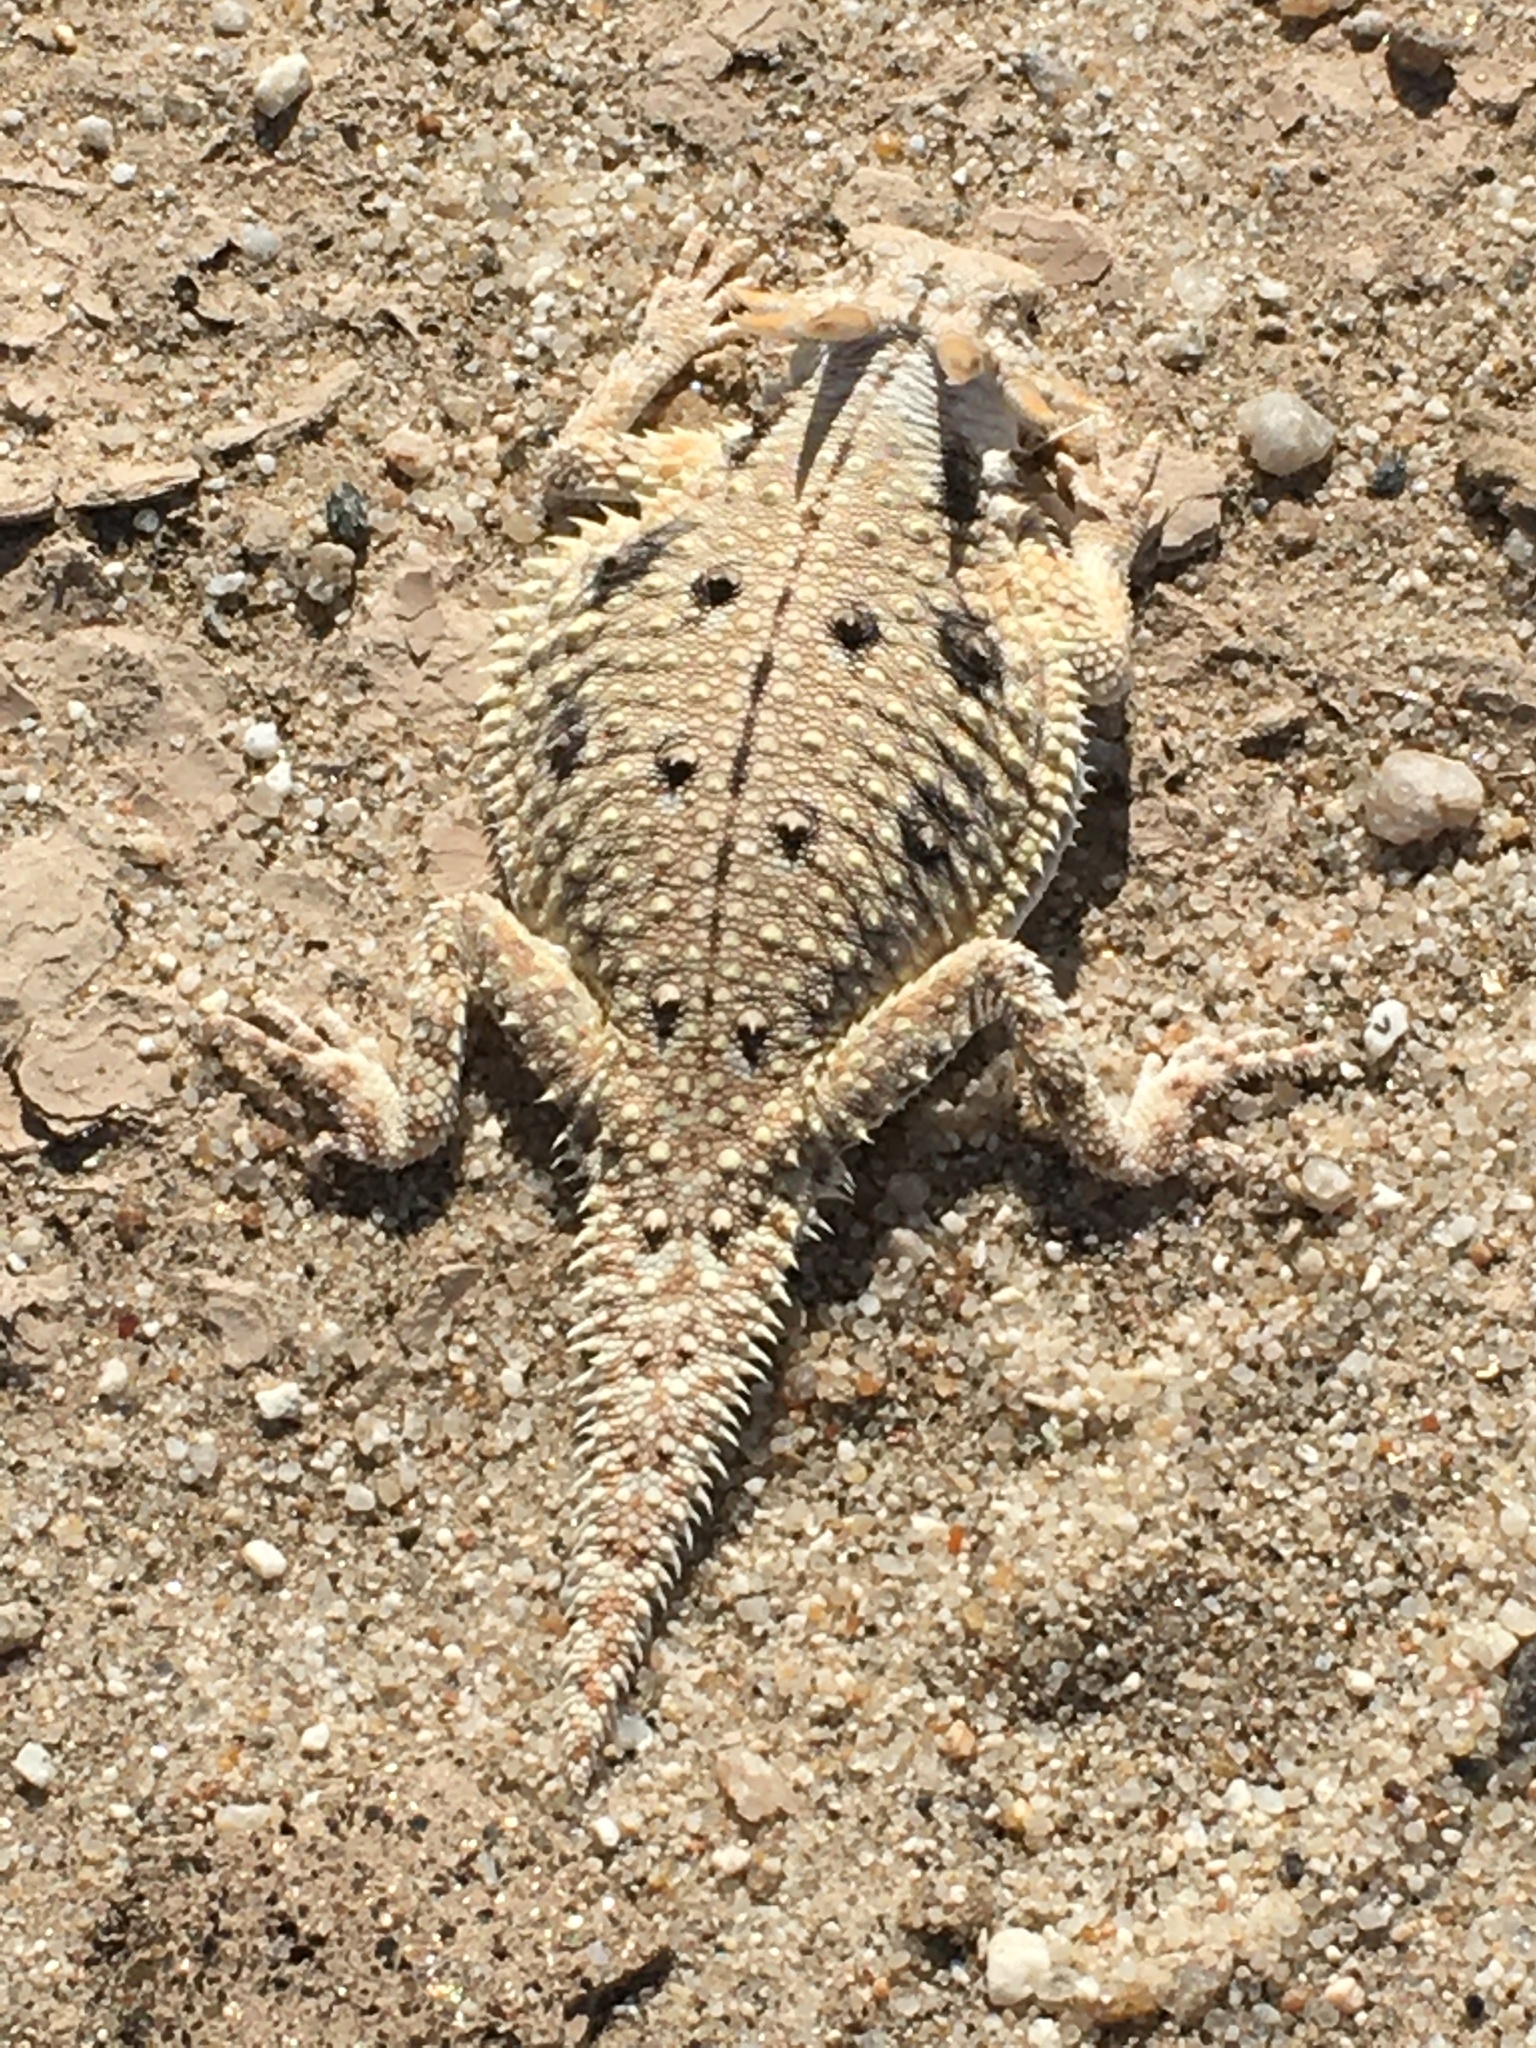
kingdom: Animalia
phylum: Chordata
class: Squamata
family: Phrynosomatidae
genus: Phrynosoma
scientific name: Phrynosoma mcallii
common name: Flat-tailed horned lizard
